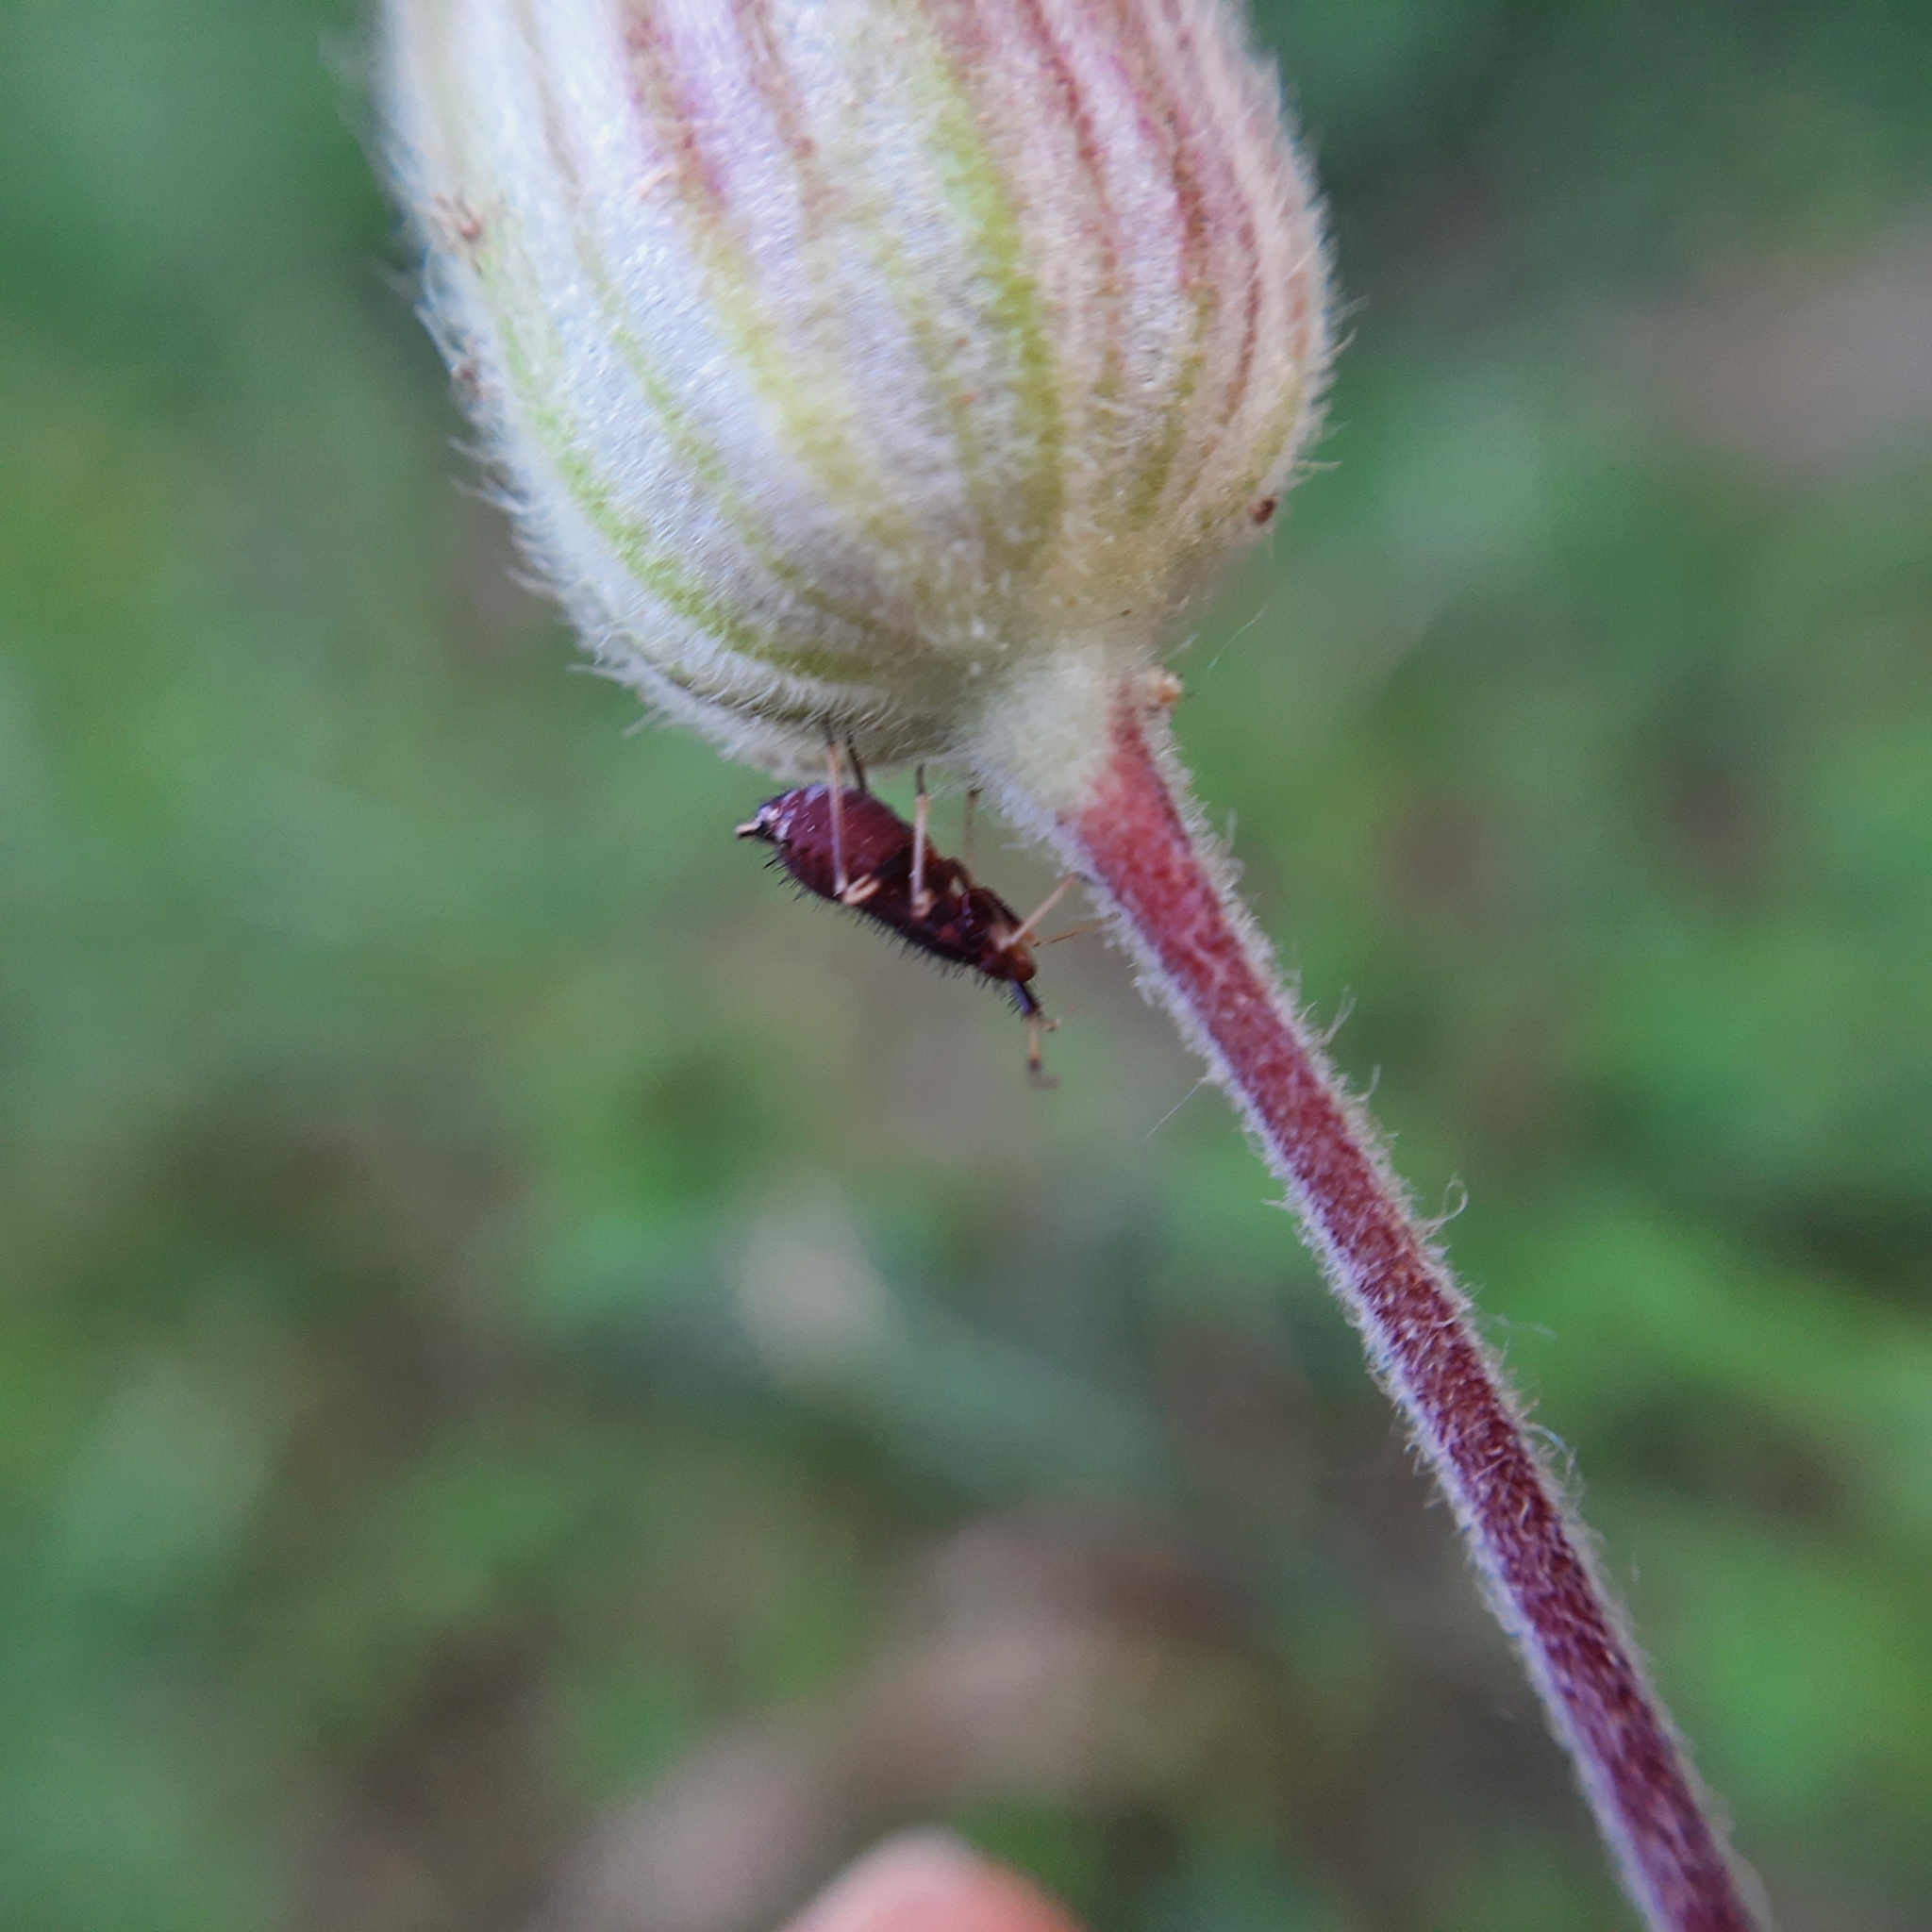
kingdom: Animalia
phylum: Arthropoda
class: Insecta
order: Hemiptera
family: Miridae
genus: Deraeocoris
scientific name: Deraeocoris ruber
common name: Plant bug
